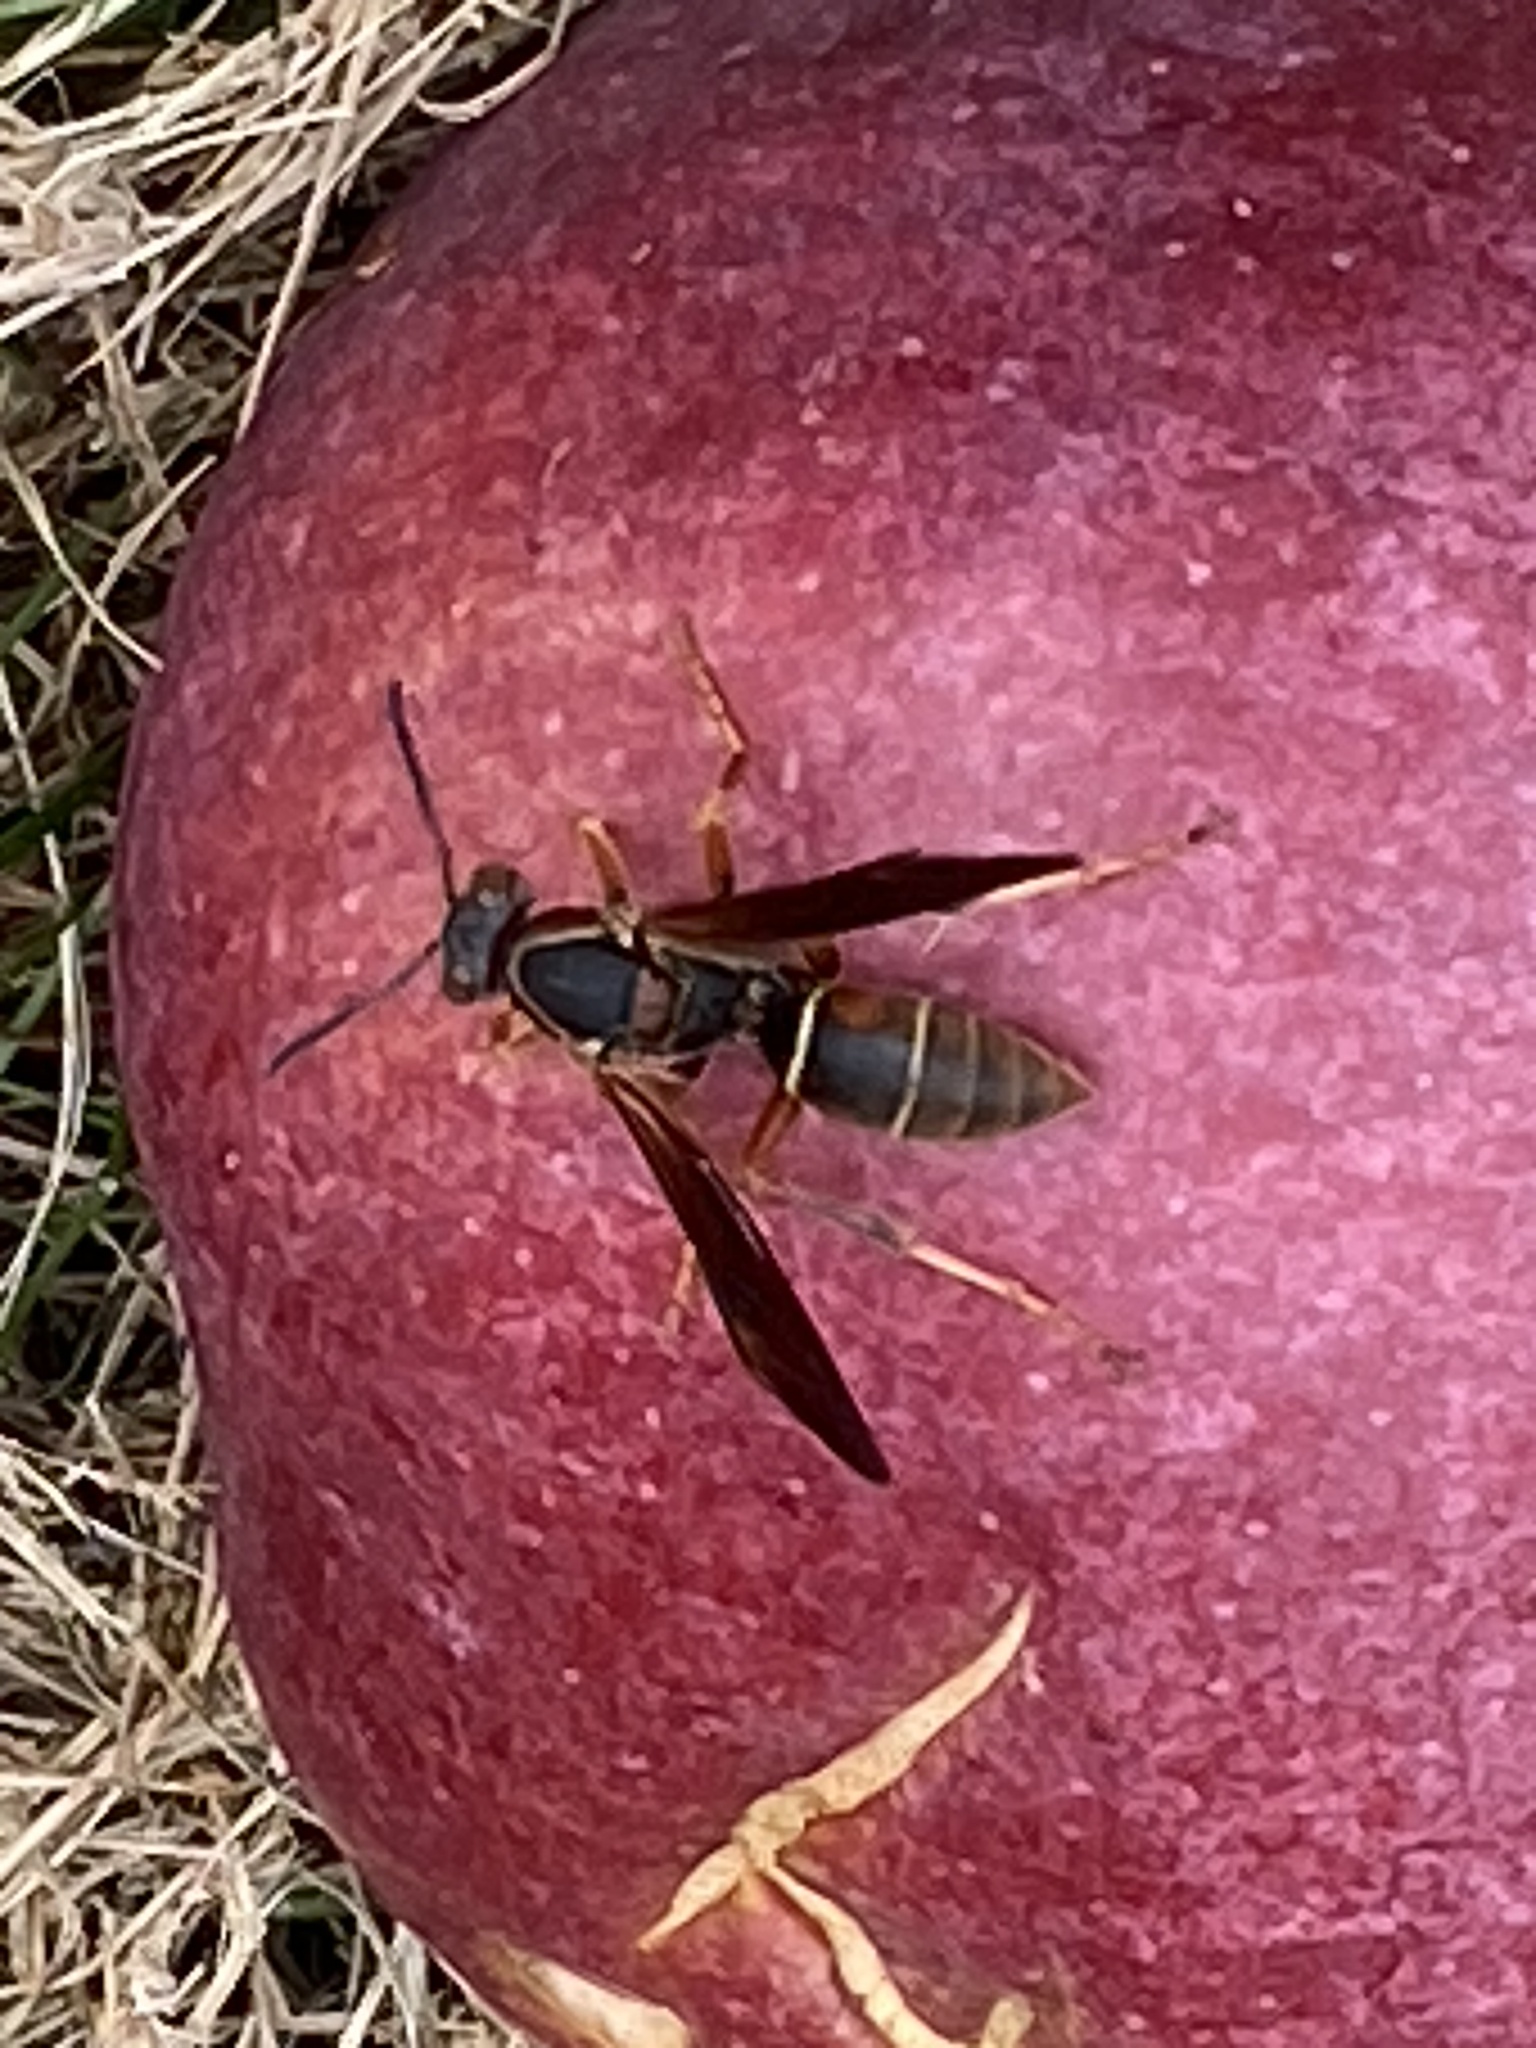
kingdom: Animalia
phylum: Arthropoda
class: Insecta
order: Hymenoptera
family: Eumenidae
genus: Polistes
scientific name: Polistes fuscatus
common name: Dark paper wasp
